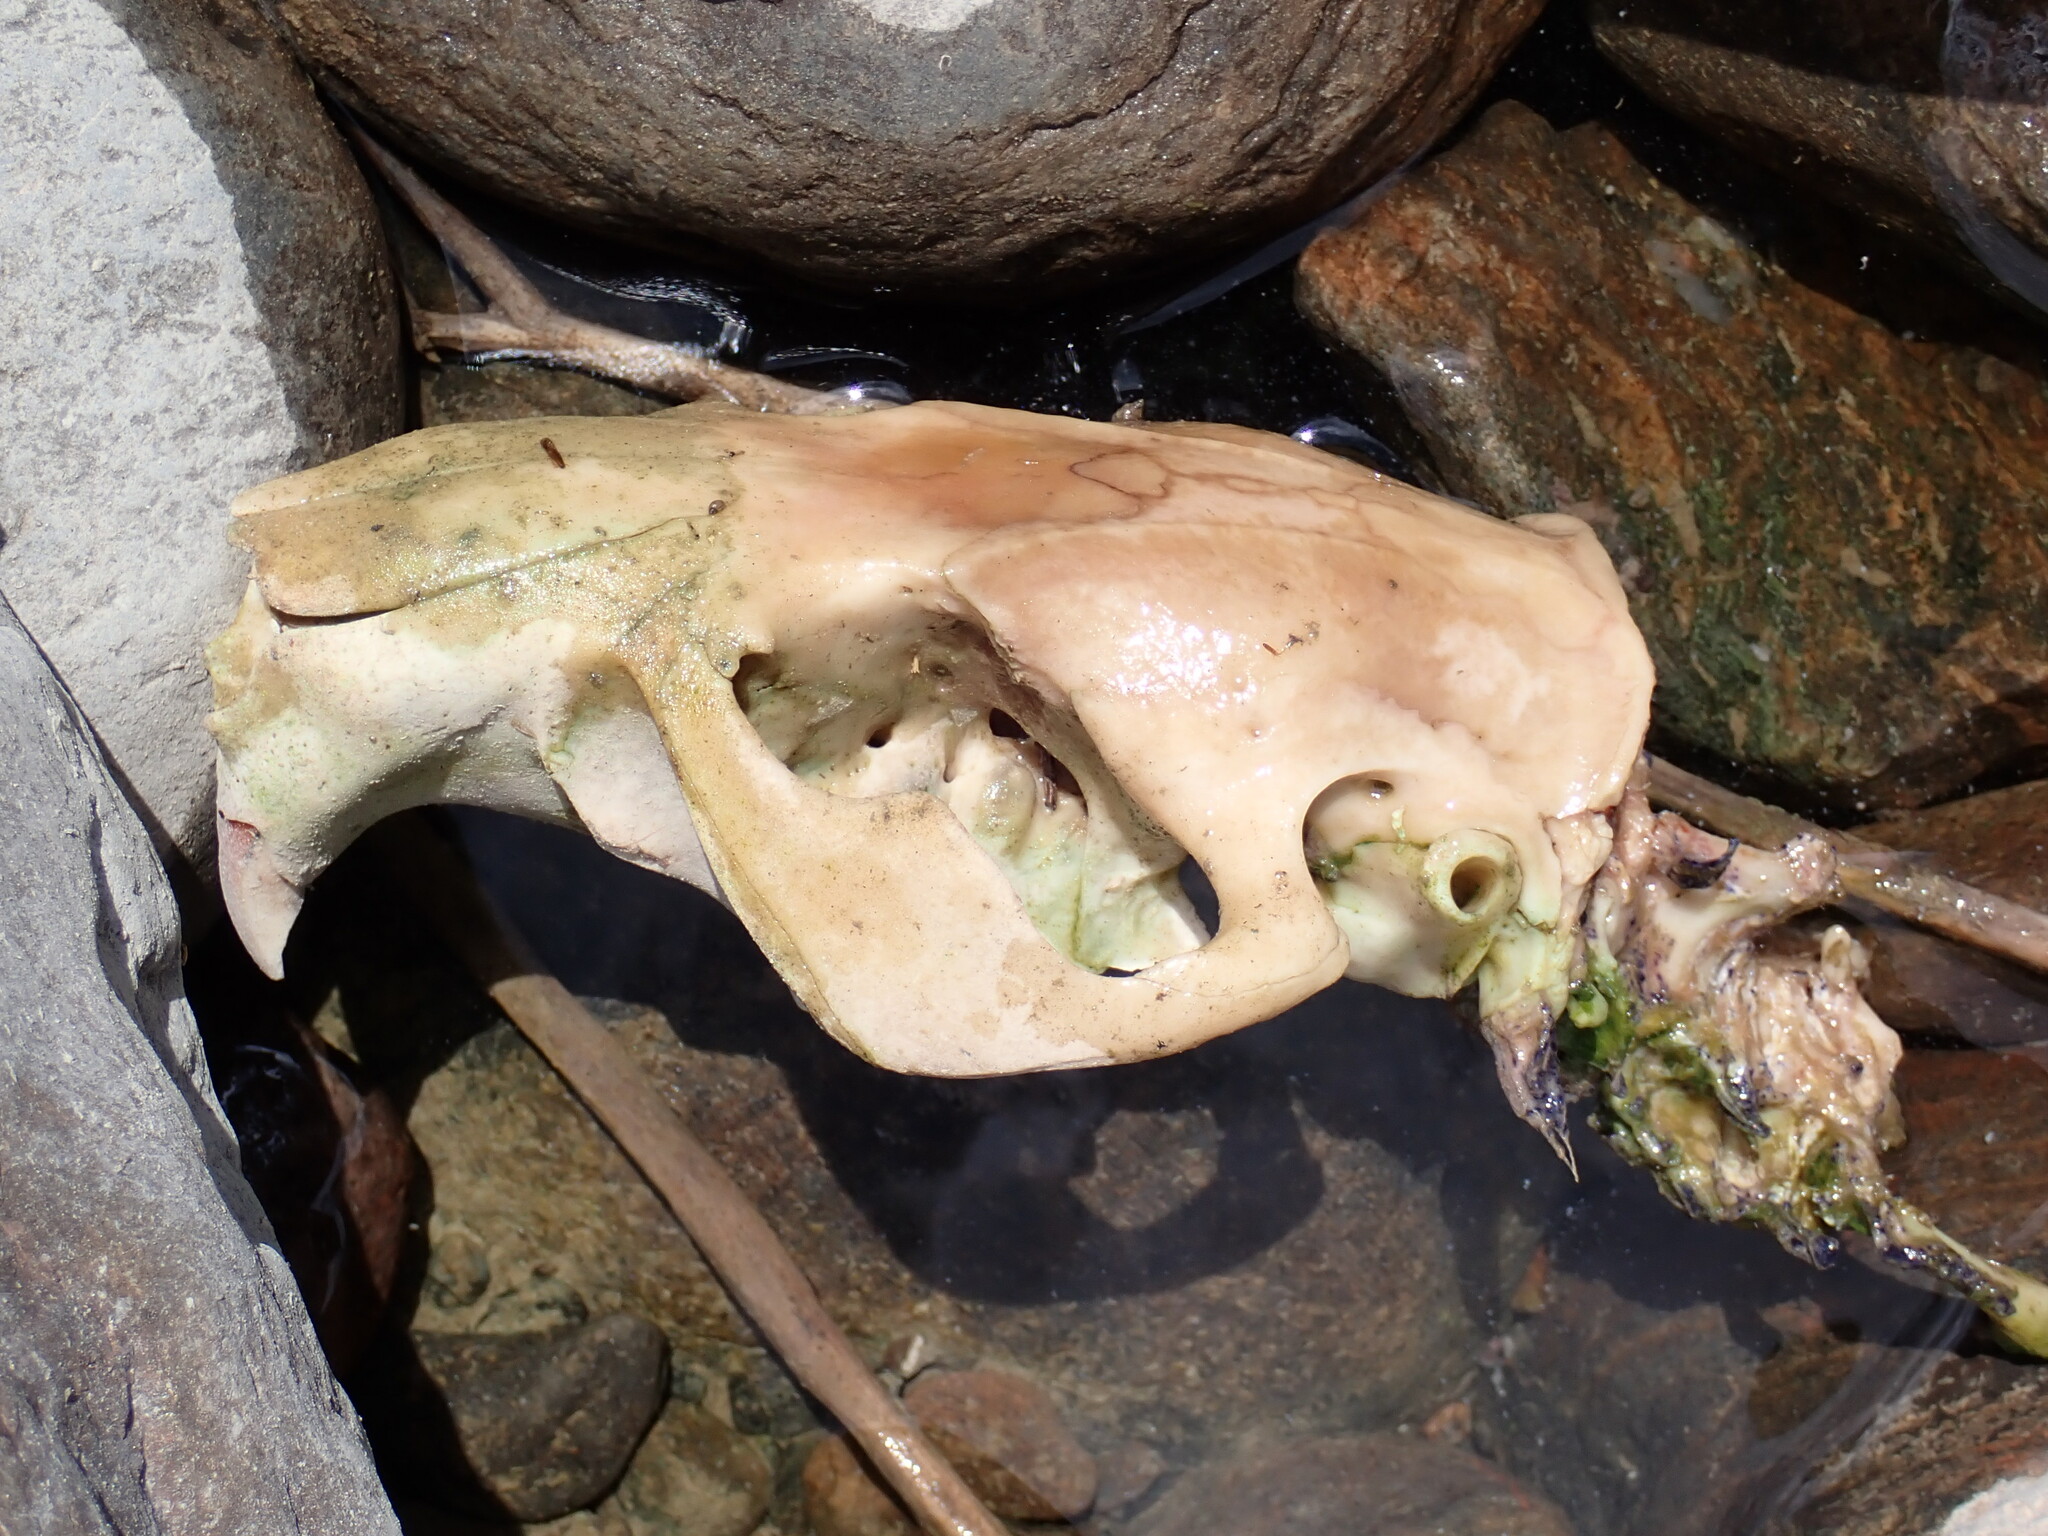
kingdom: Animalia
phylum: Chordata
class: Mammalia
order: Rodentia
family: Castoridae
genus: Castor
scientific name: Castor canadensis
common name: American beaver
